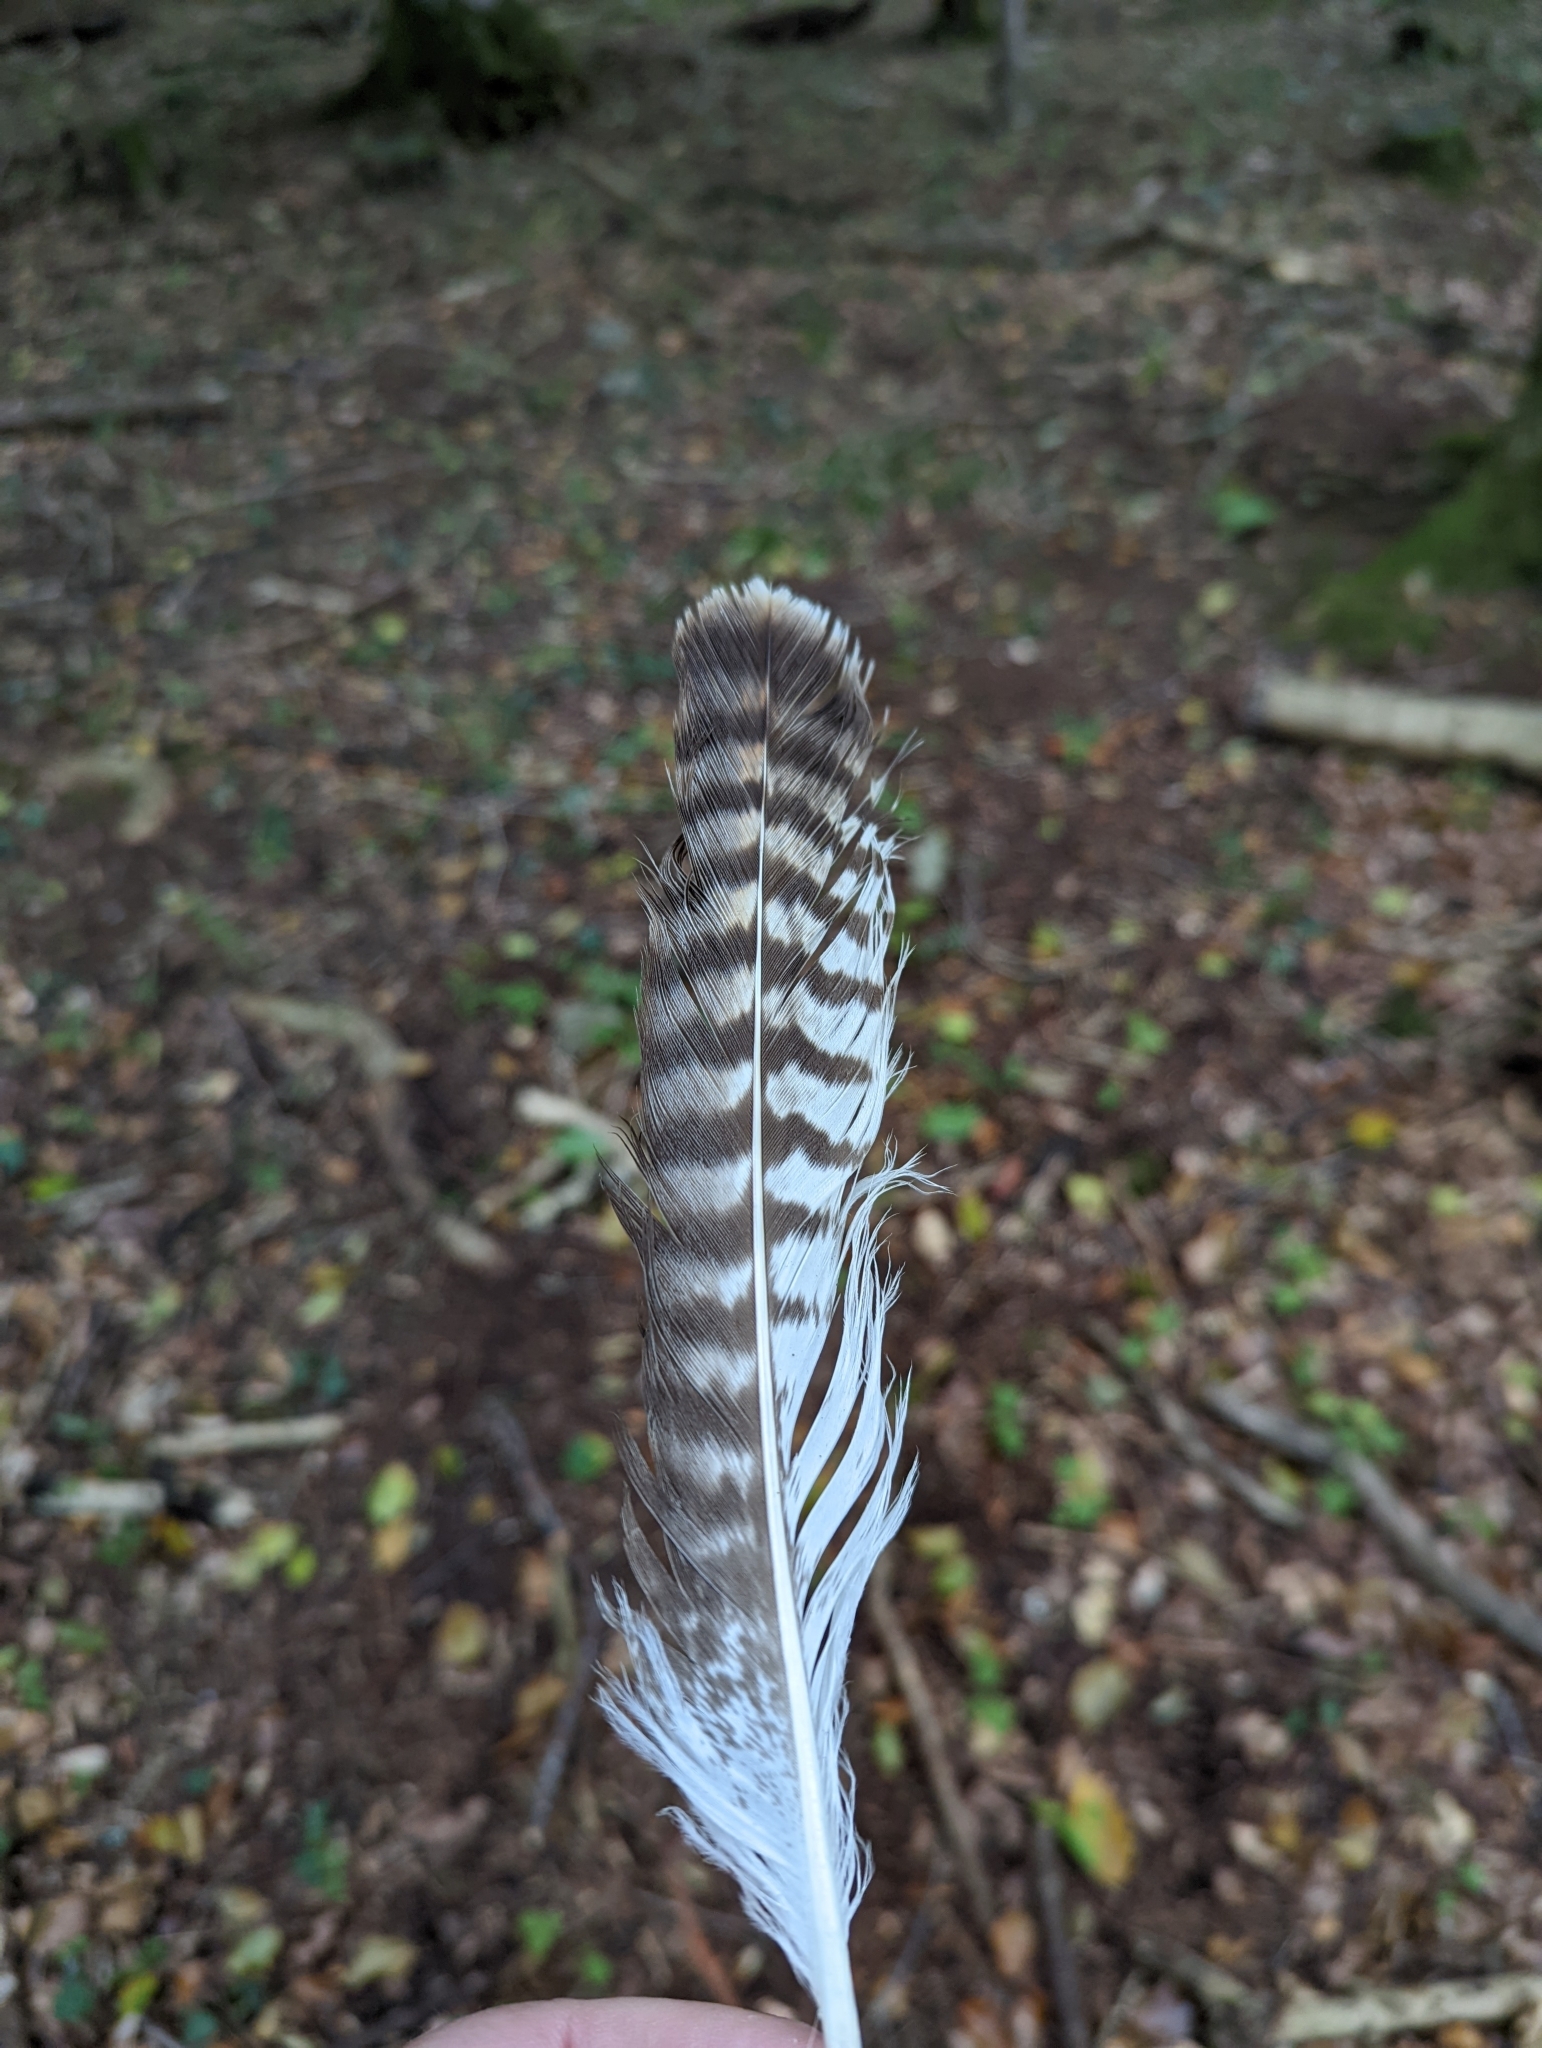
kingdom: Animalia
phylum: Chordata
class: Aves
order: Passeriformes
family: Corvidae
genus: Garrulus
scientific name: Garrulus glandarius
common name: Eurasian jay
